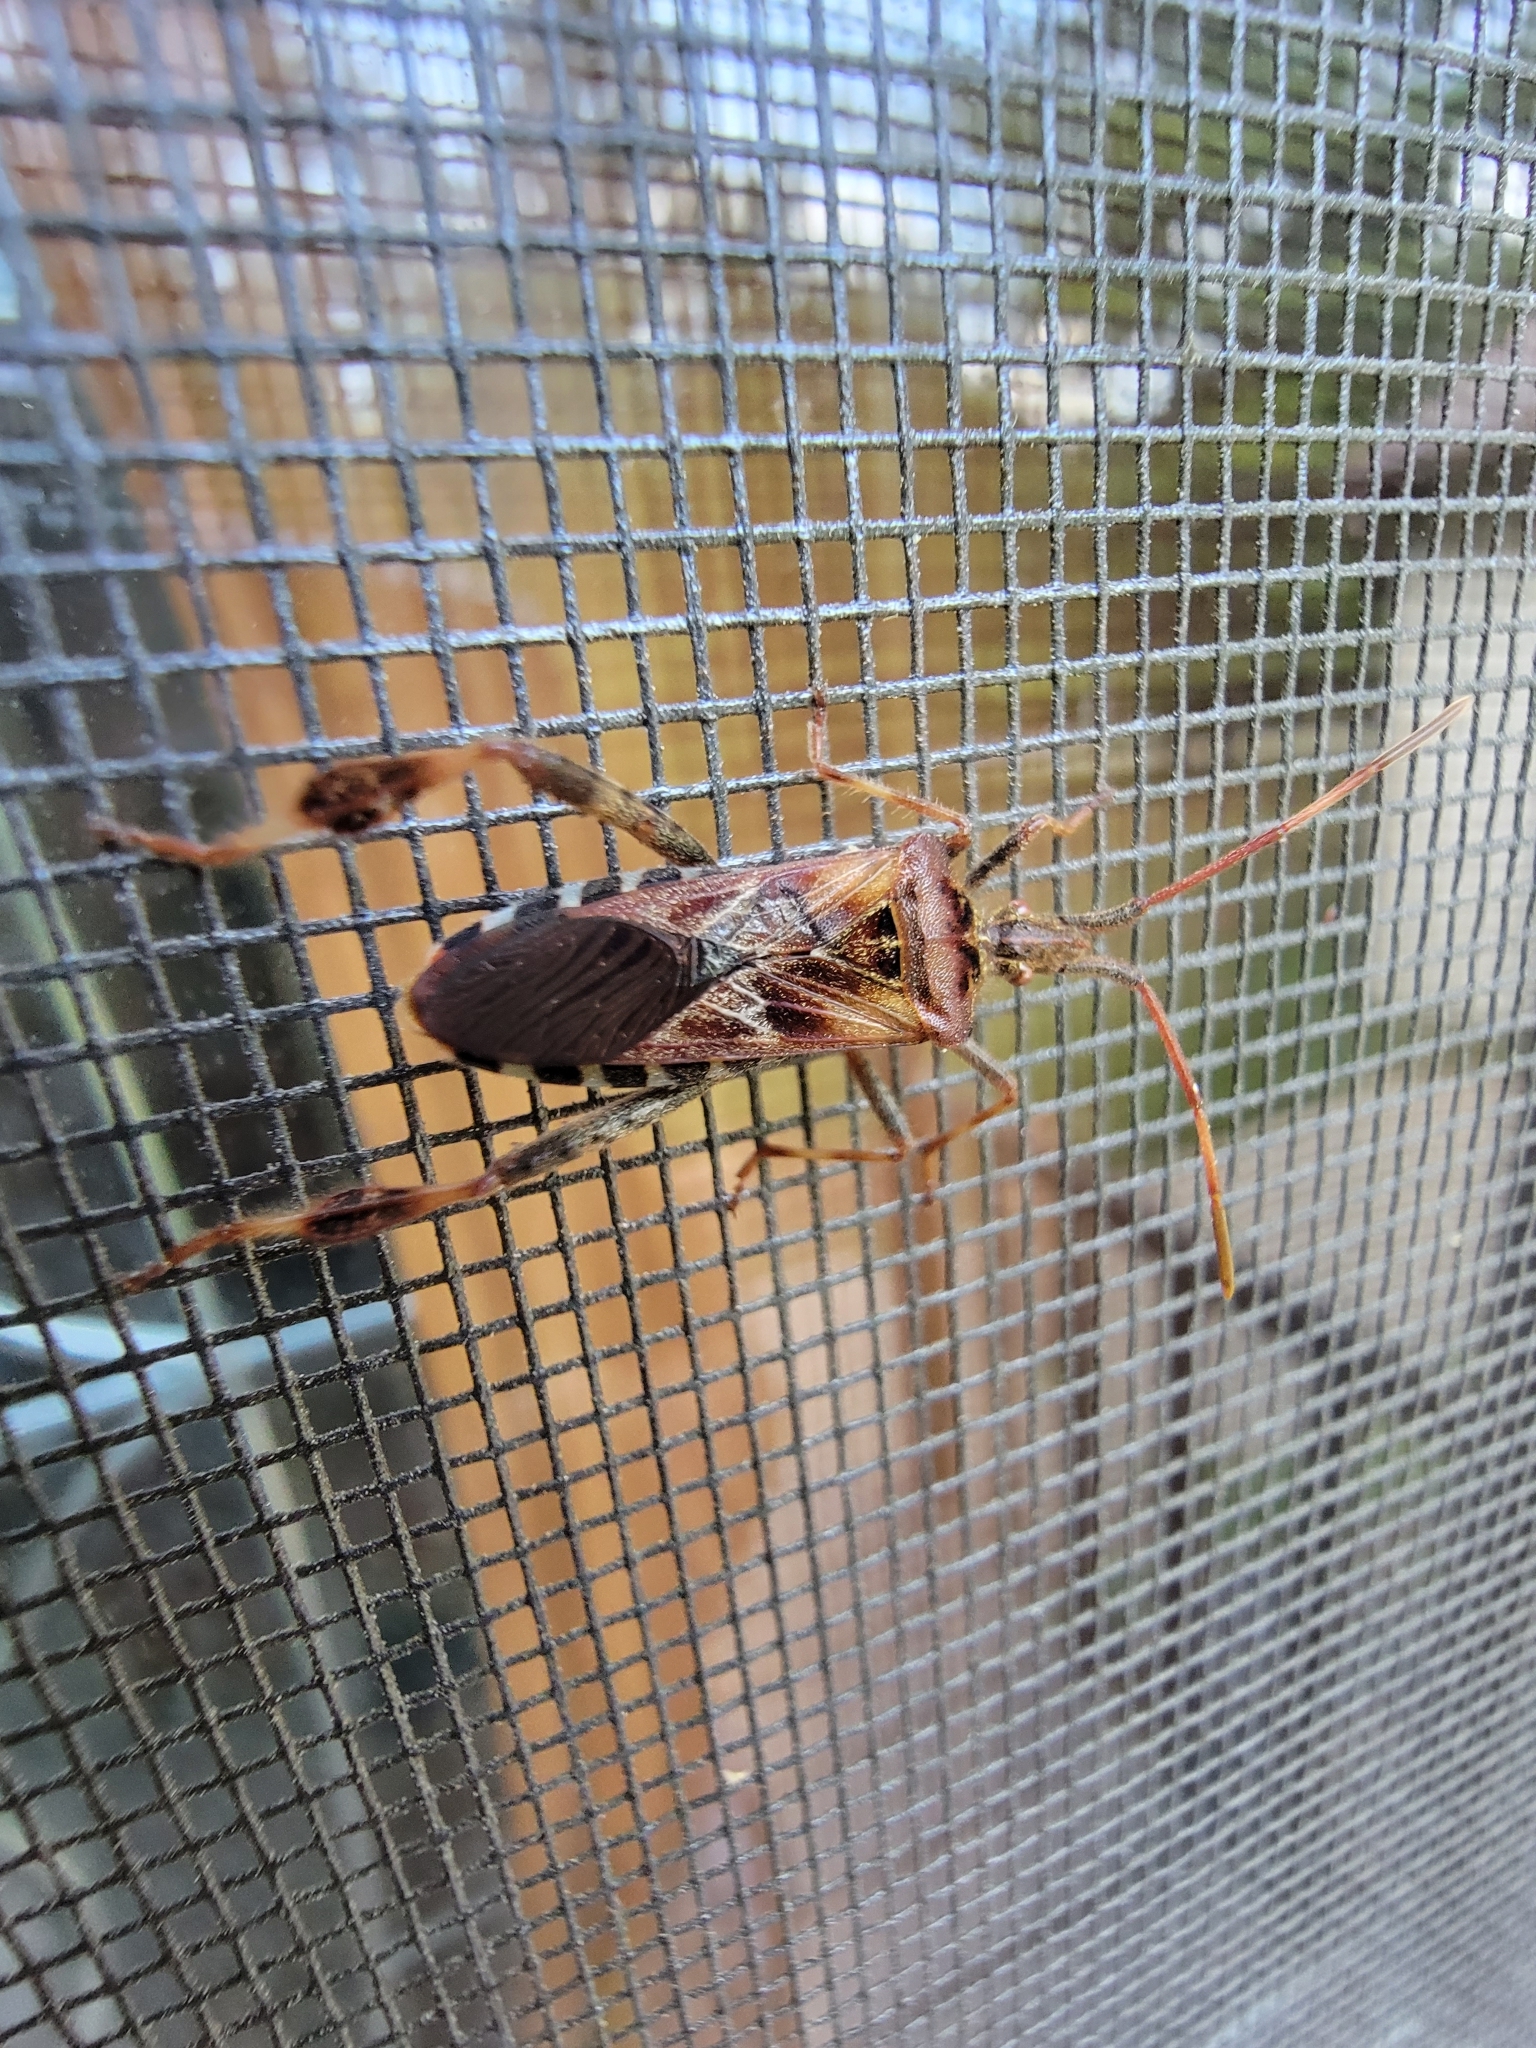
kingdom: Animalia
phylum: Arthropoda
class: Insecta
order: Hemiptera
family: Coreidae
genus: Leptoglossus
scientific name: Leptoglossus occidentalis
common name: Western conifer-seed bug
